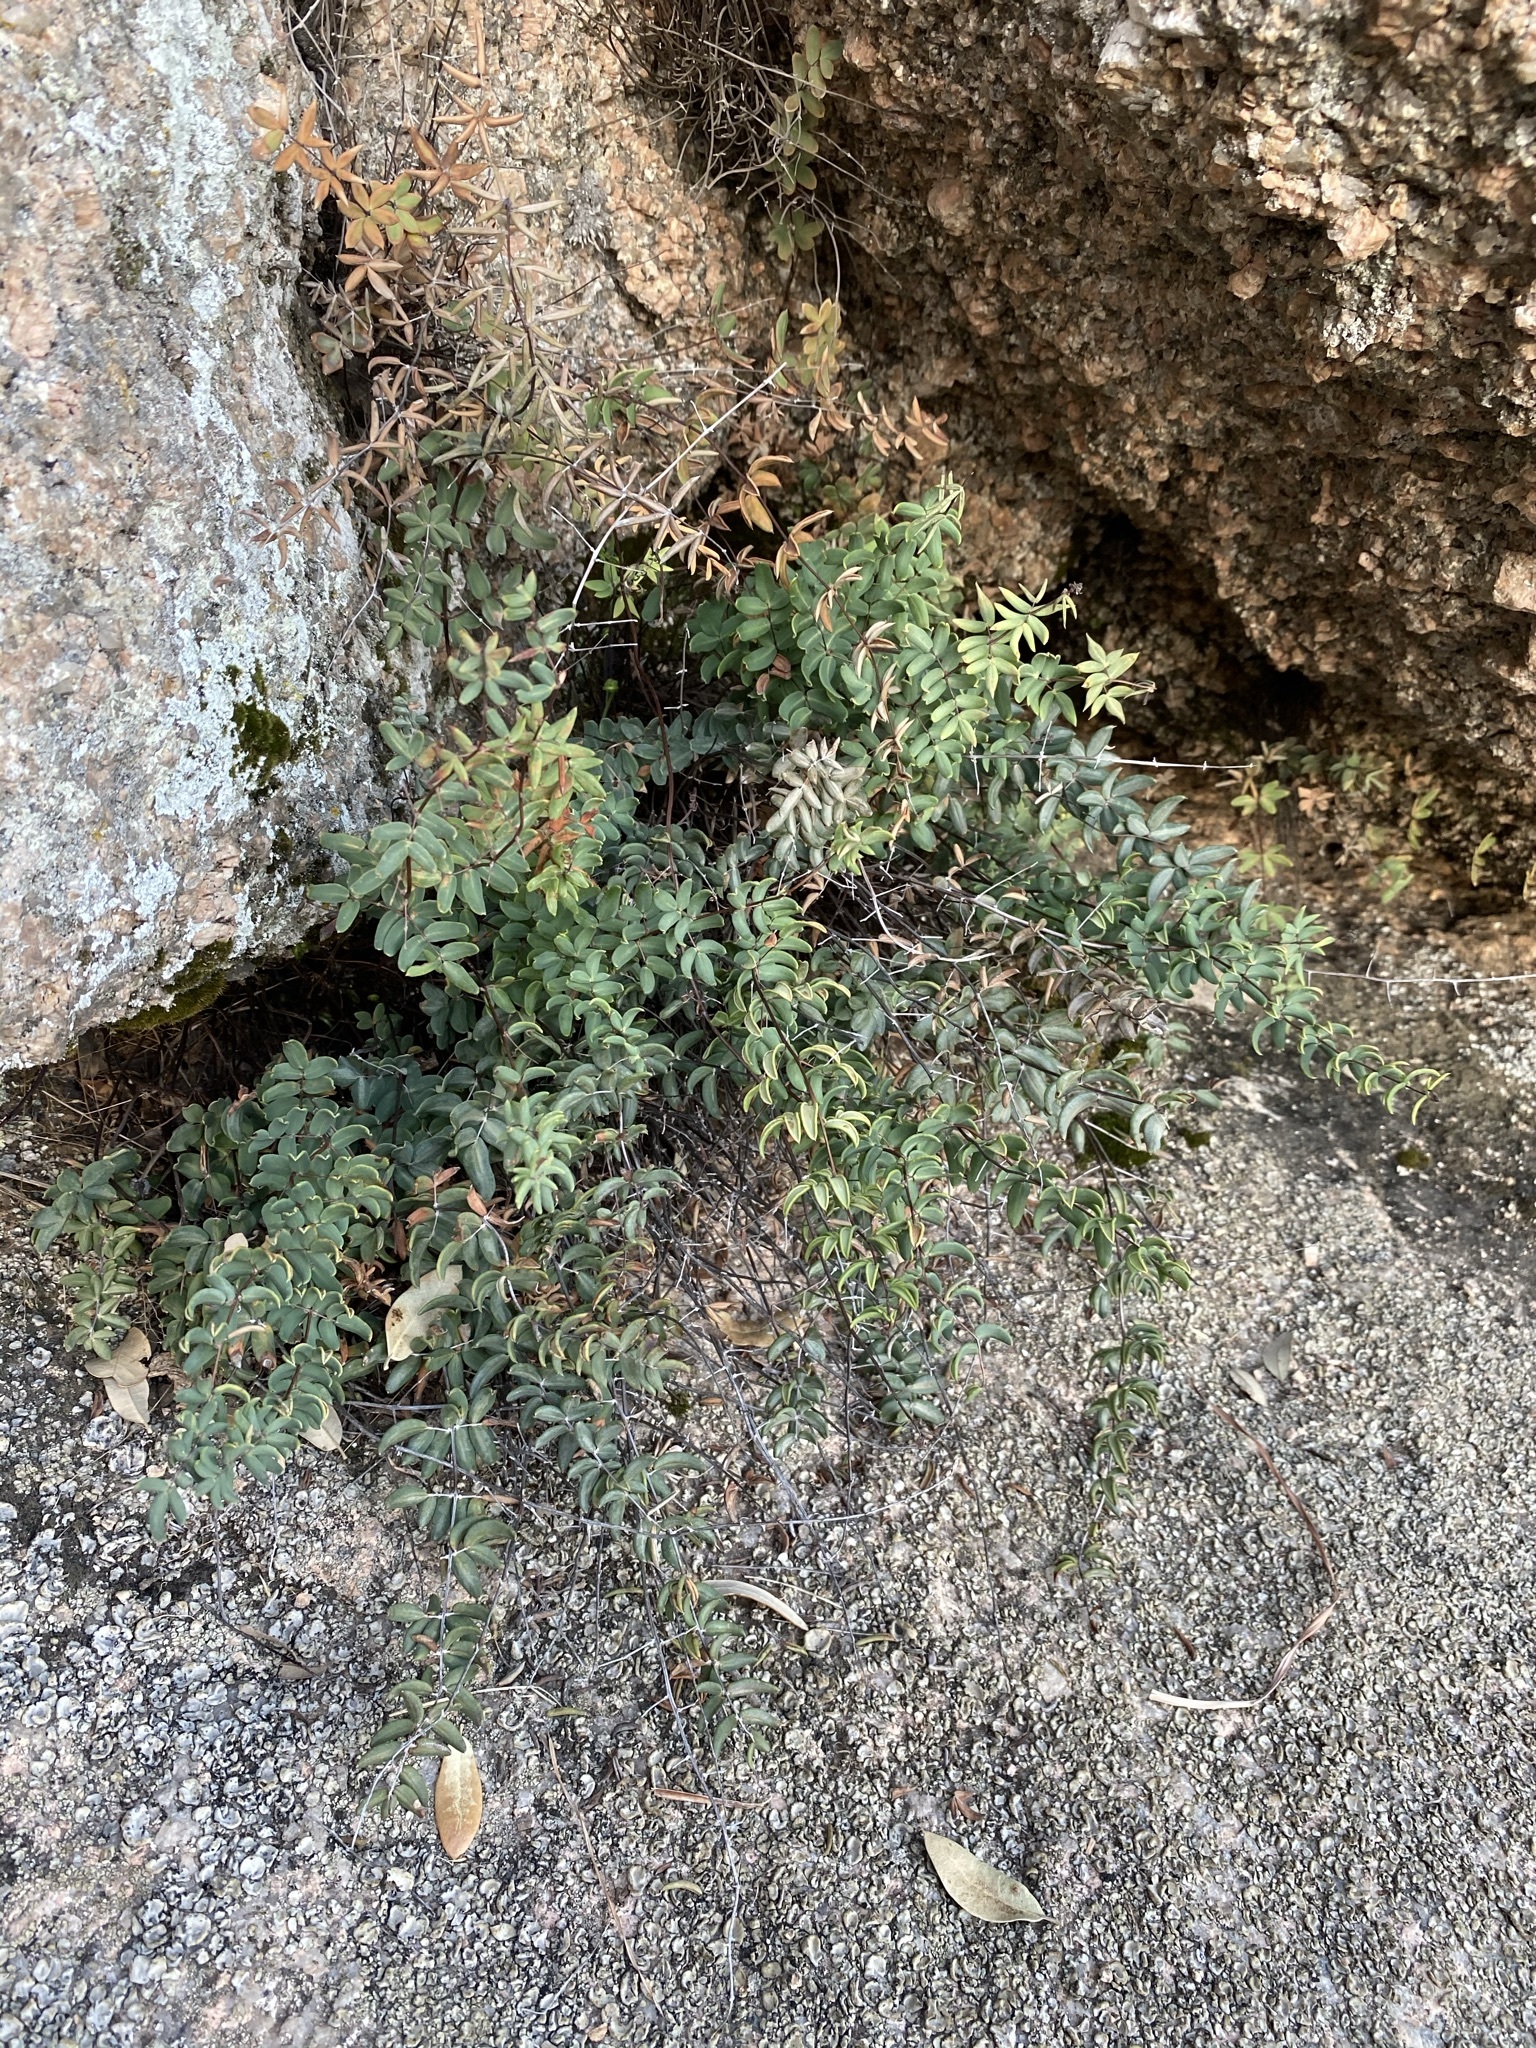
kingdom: Plantae
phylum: Tracheophyta
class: Polypodiopsida
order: Polypodiales
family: Pteridaceae
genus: Pellaea
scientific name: Pellaea wrightiana
